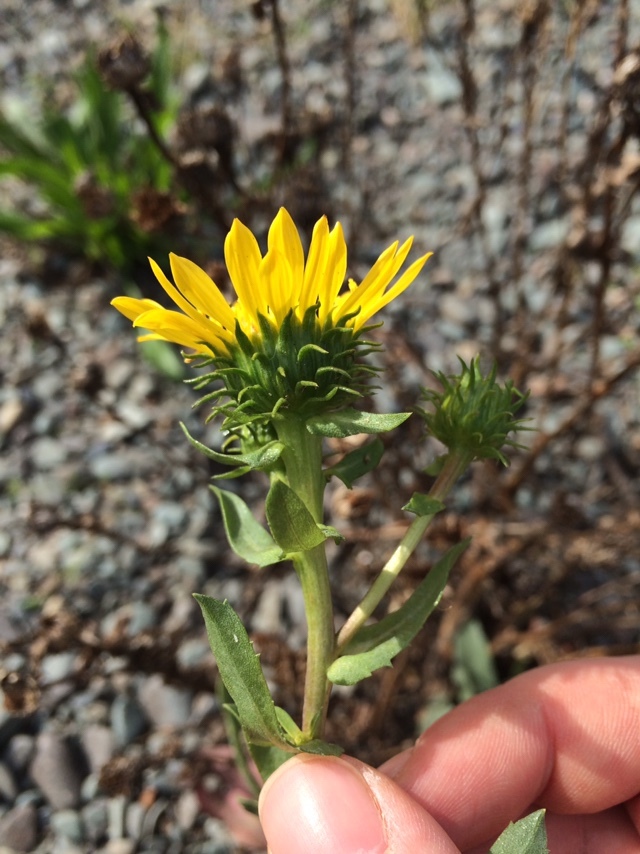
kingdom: Plantae
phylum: Tracheophyta
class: Magnoliopsida
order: Asterales
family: Asteraceae
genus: Grindelia
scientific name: Grindelia hirsutula
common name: Hairy gumweed
